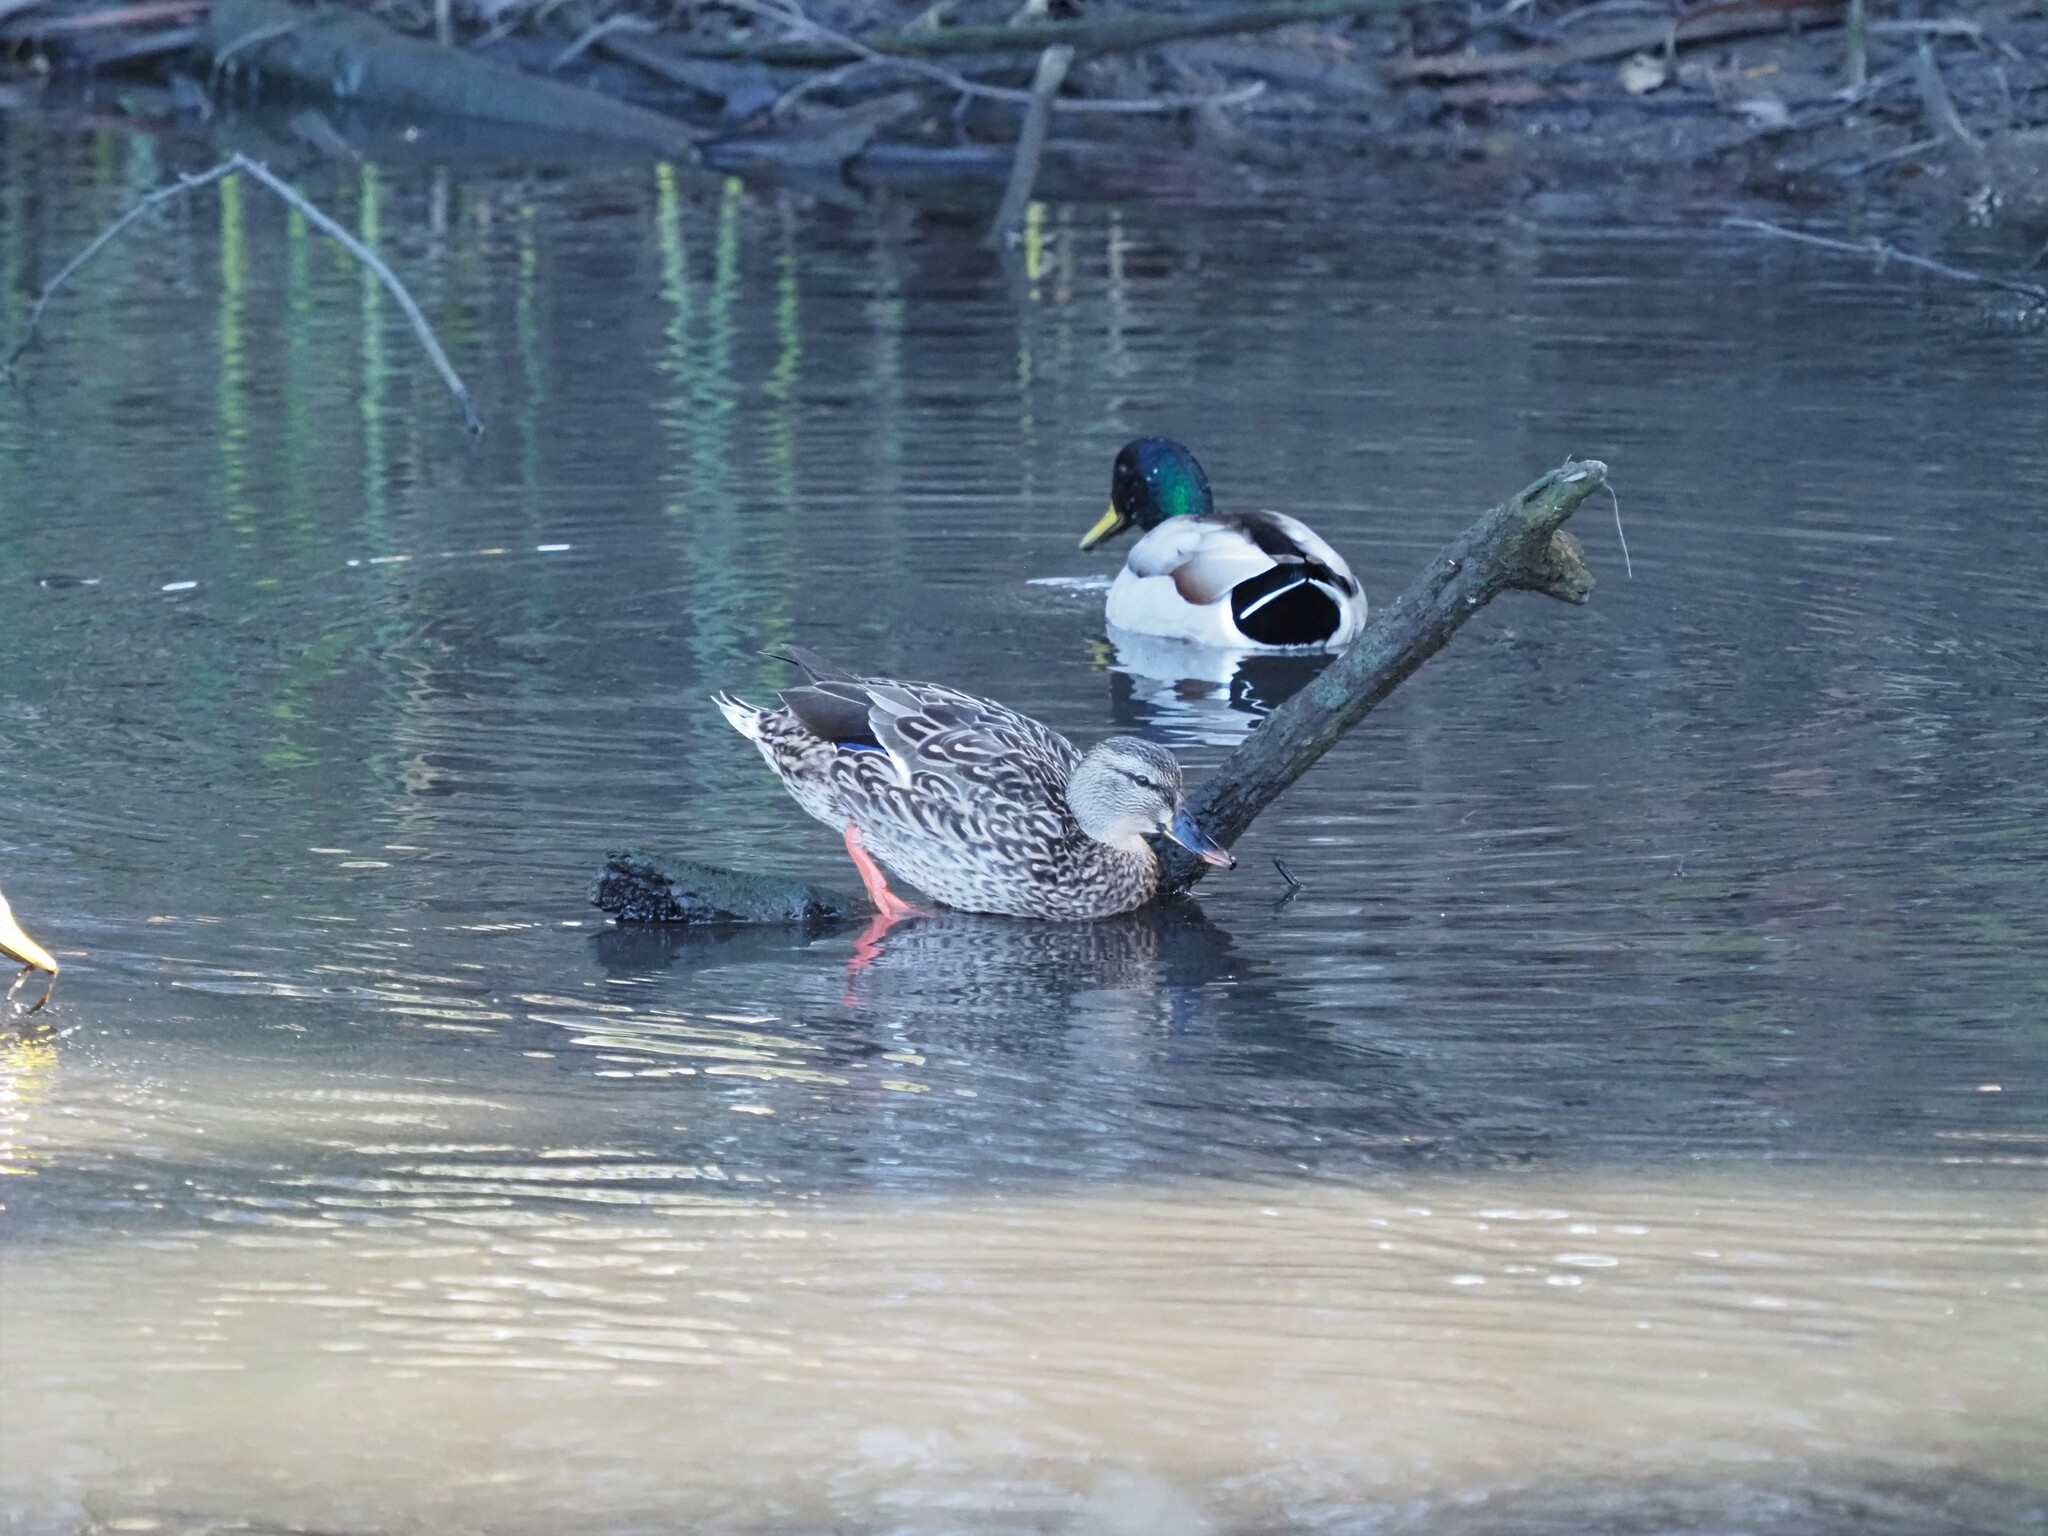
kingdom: Animalia
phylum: Chordata
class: Aves
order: Anseriformes
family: Anatidae
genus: Anas
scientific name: Anas platyrhynchos
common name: Mallard
